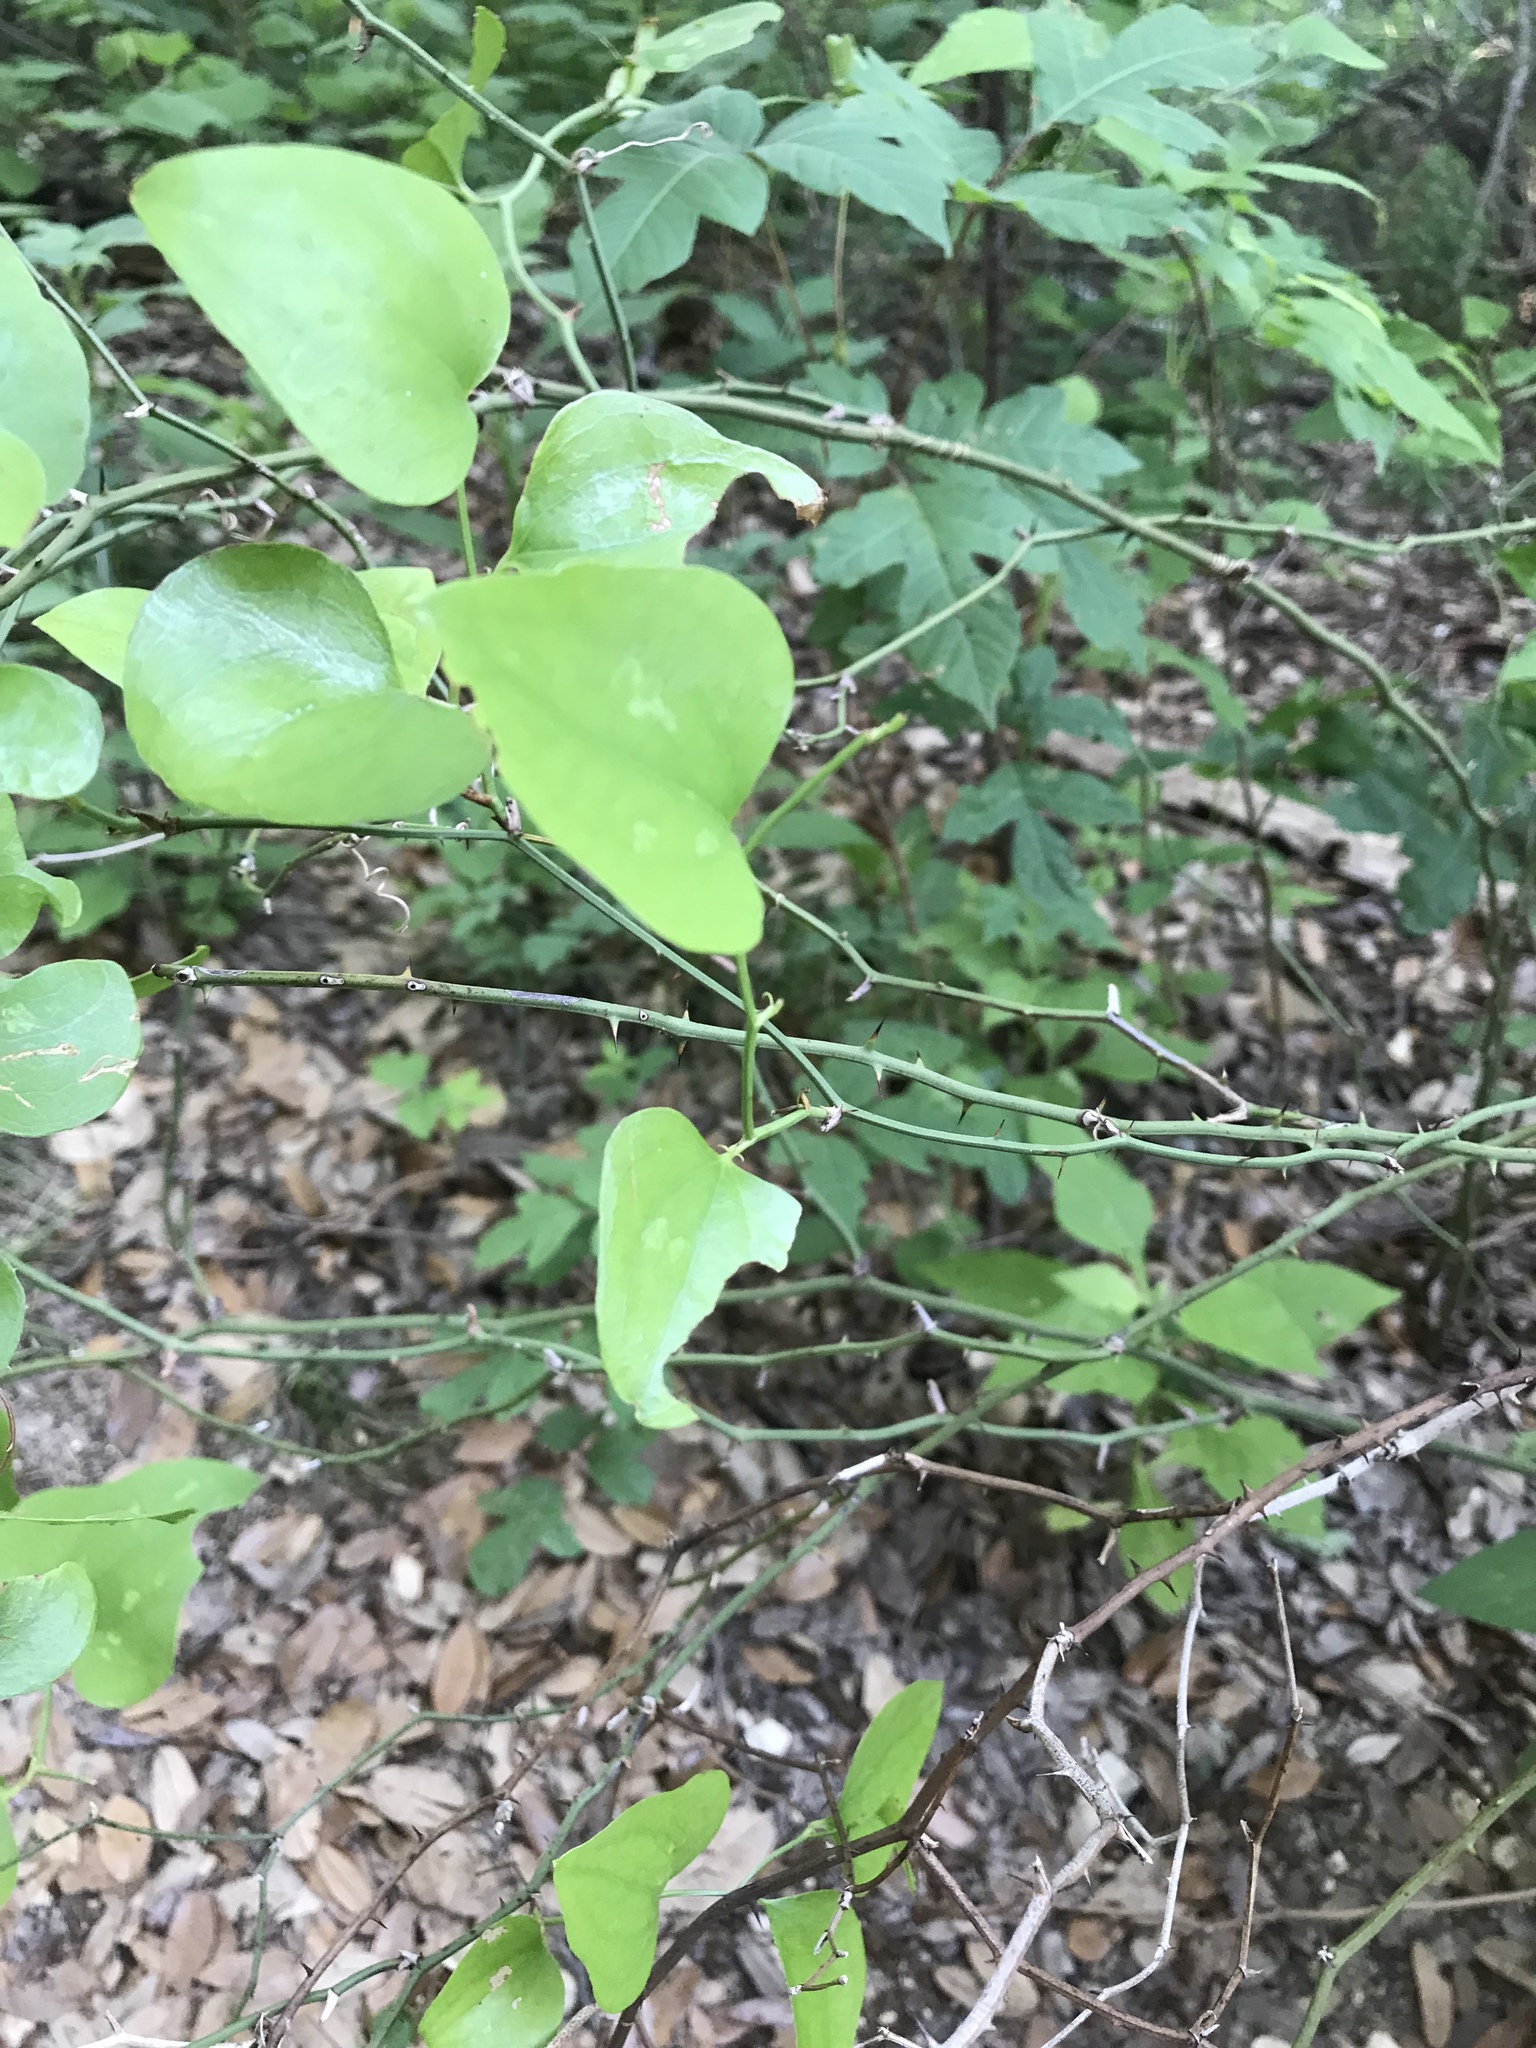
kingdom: Plantae
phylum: Tracheophyta
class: Liliopsida
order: Liliales
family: Smilacaceae
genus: Smilax
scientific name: Smilax bona-nox
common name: Catbrier
